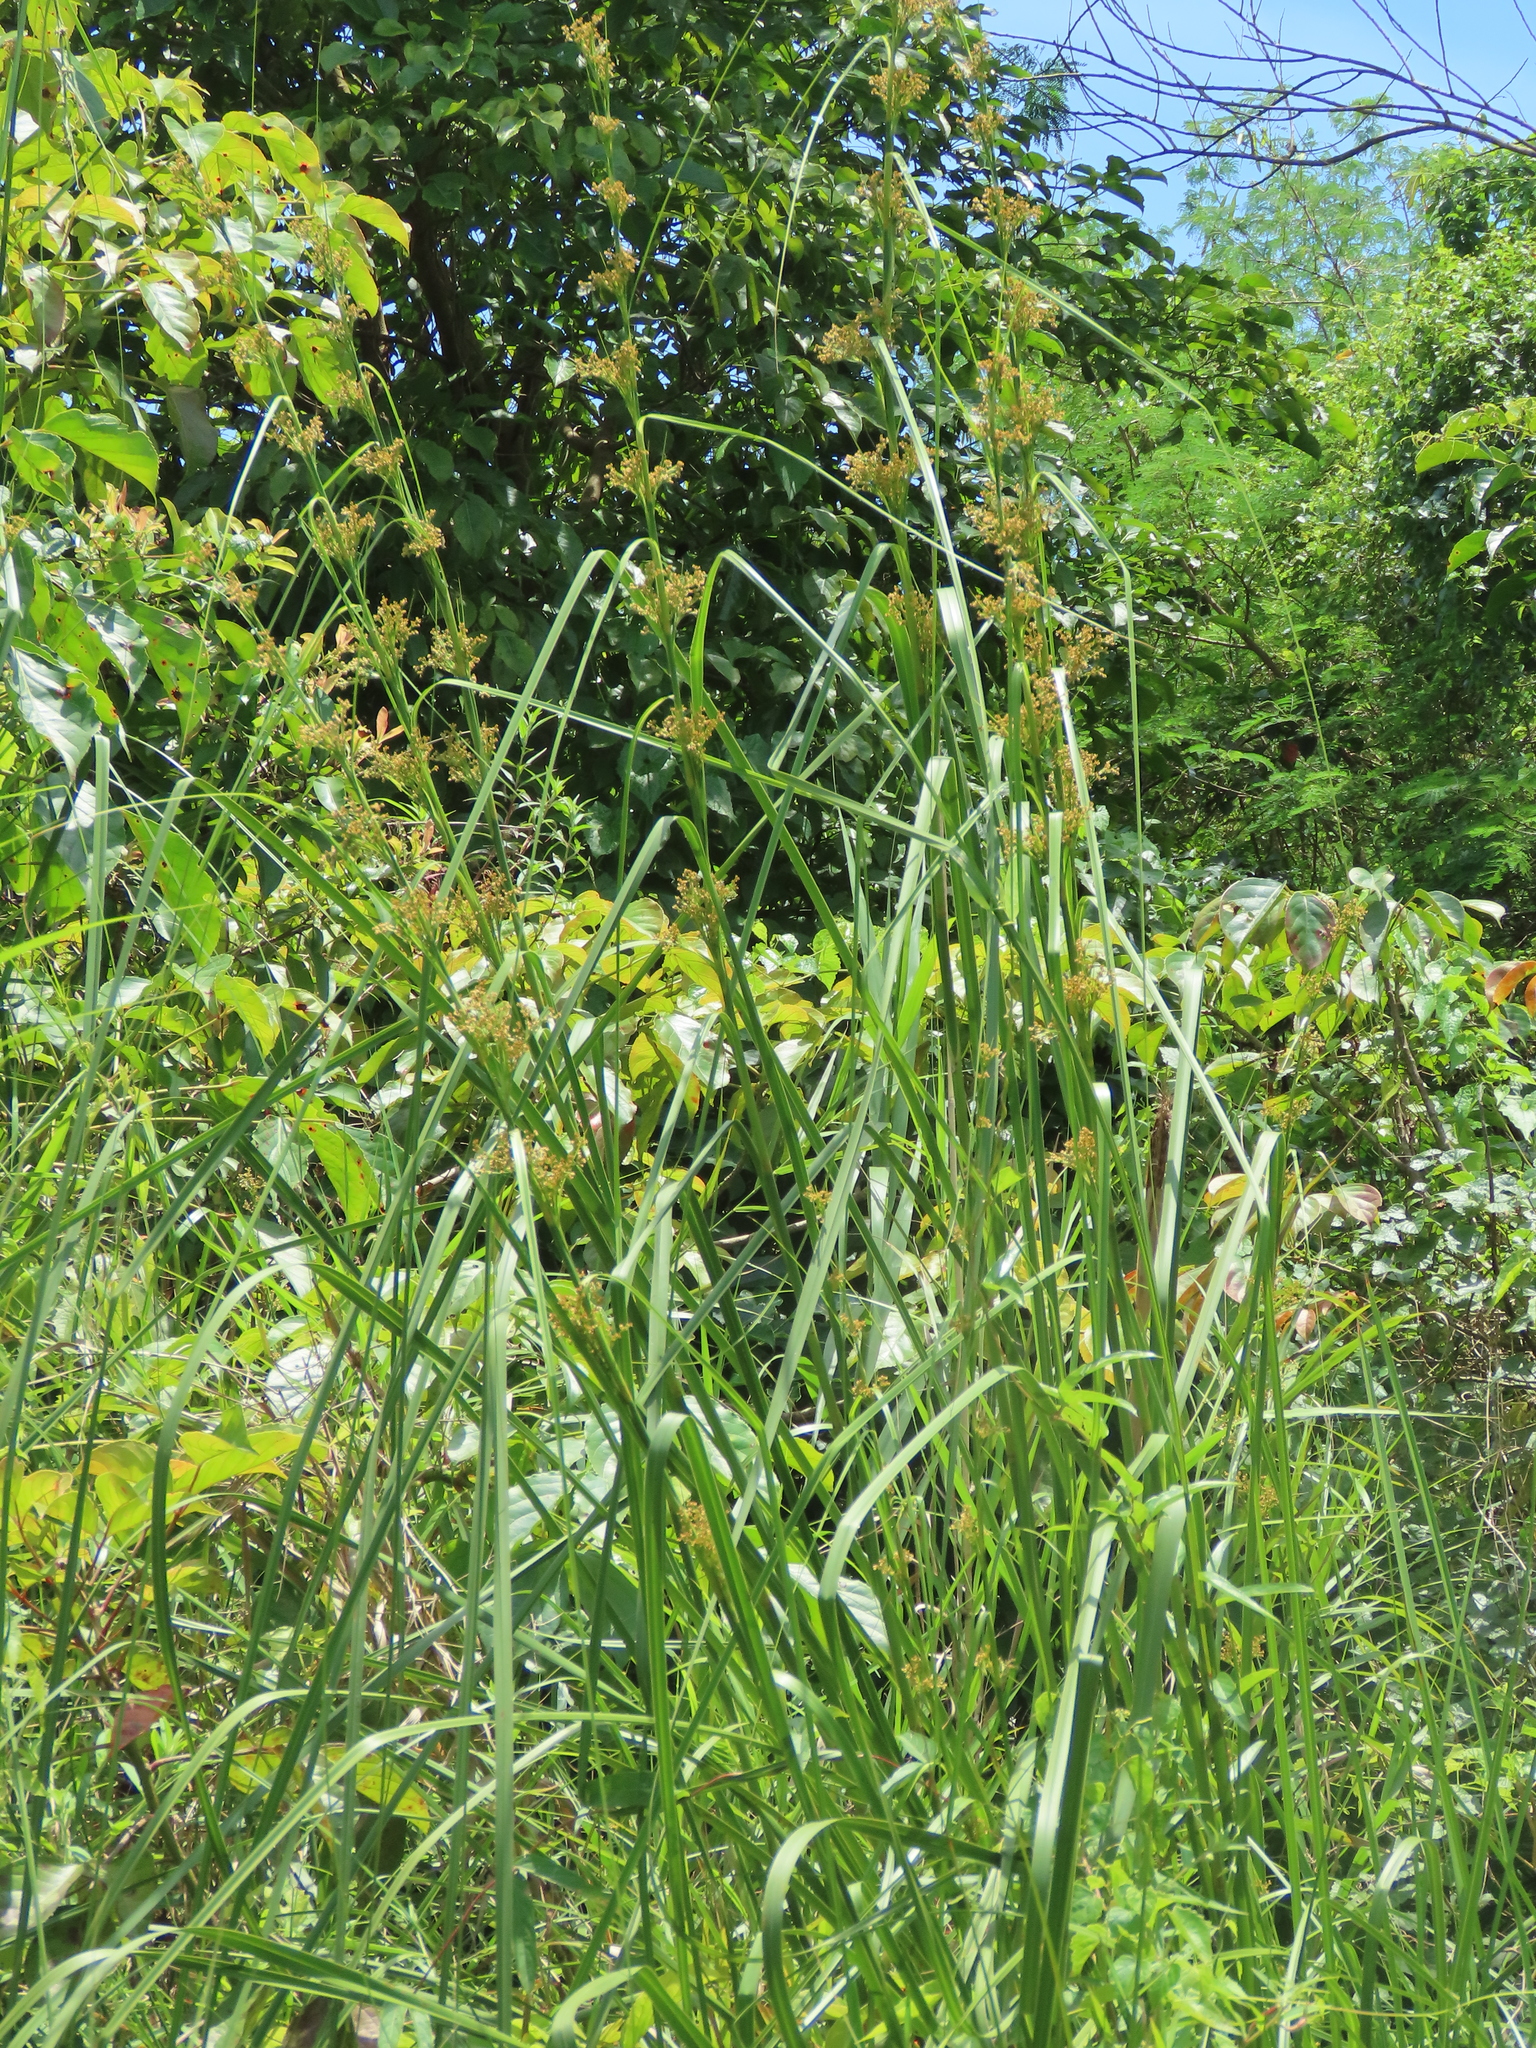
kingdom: Plantae
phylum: Tracheophyta
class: Liliopsida
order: Poales
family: Cyperaceae
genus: Cladium
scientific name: Cladium mariscus
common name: Great fen-sedge
